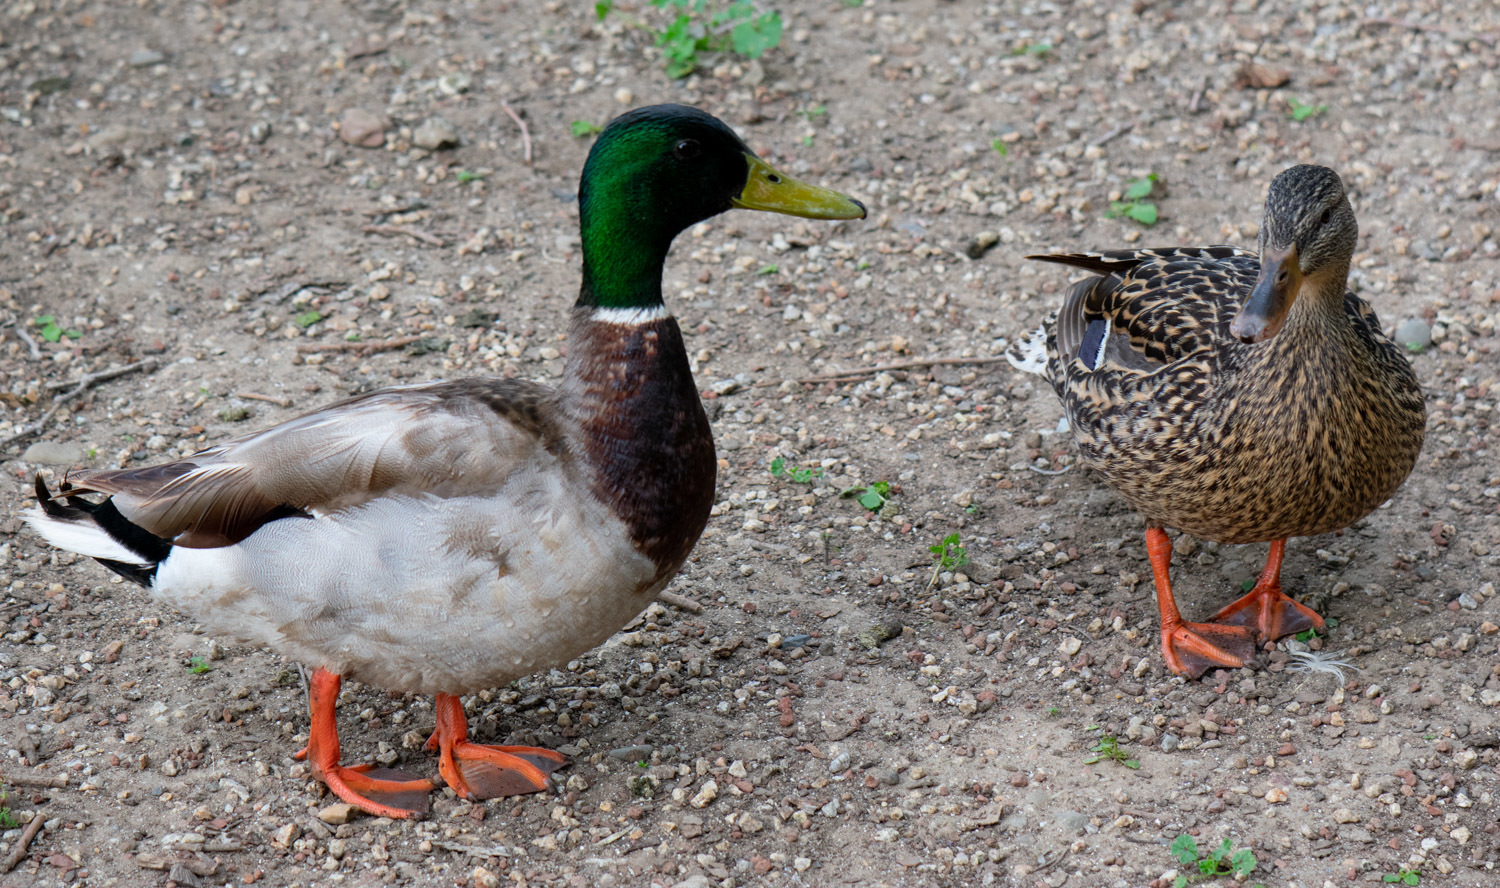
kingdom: Animalia
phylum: Chordata
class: Aves
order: Anseriformes
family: Anatidae
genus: Anas
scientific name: Anas platyrhynchos
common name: Mallard
